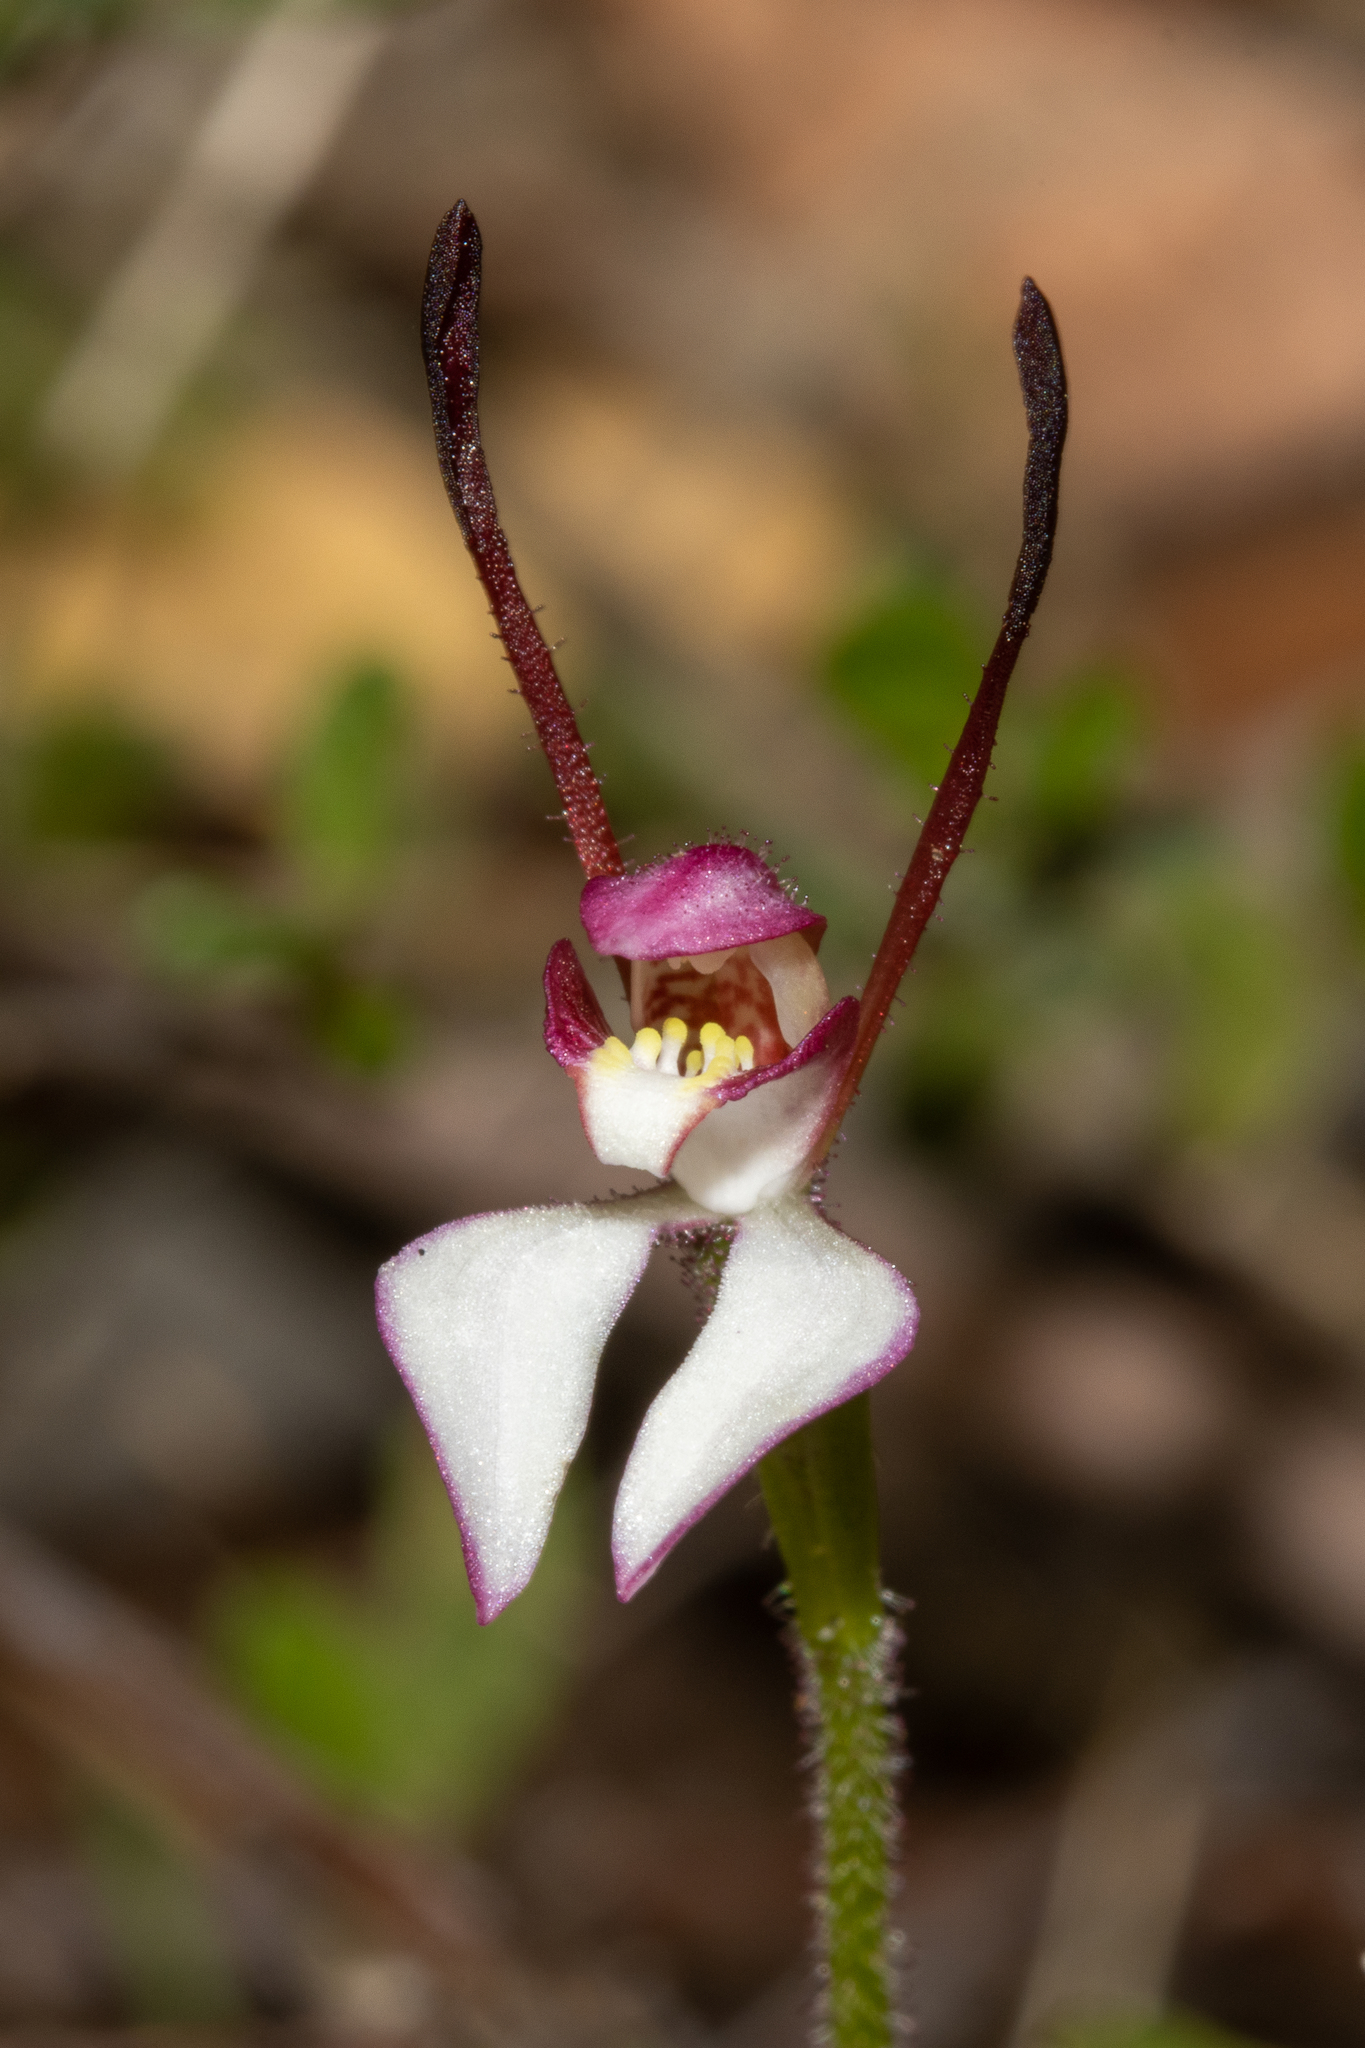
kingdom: Plantae
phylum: Tracheophyta
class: Liliopsida
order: Asparagales
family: Orchidaceae
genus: Leptoceras
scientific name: Leptoceras menziesii
